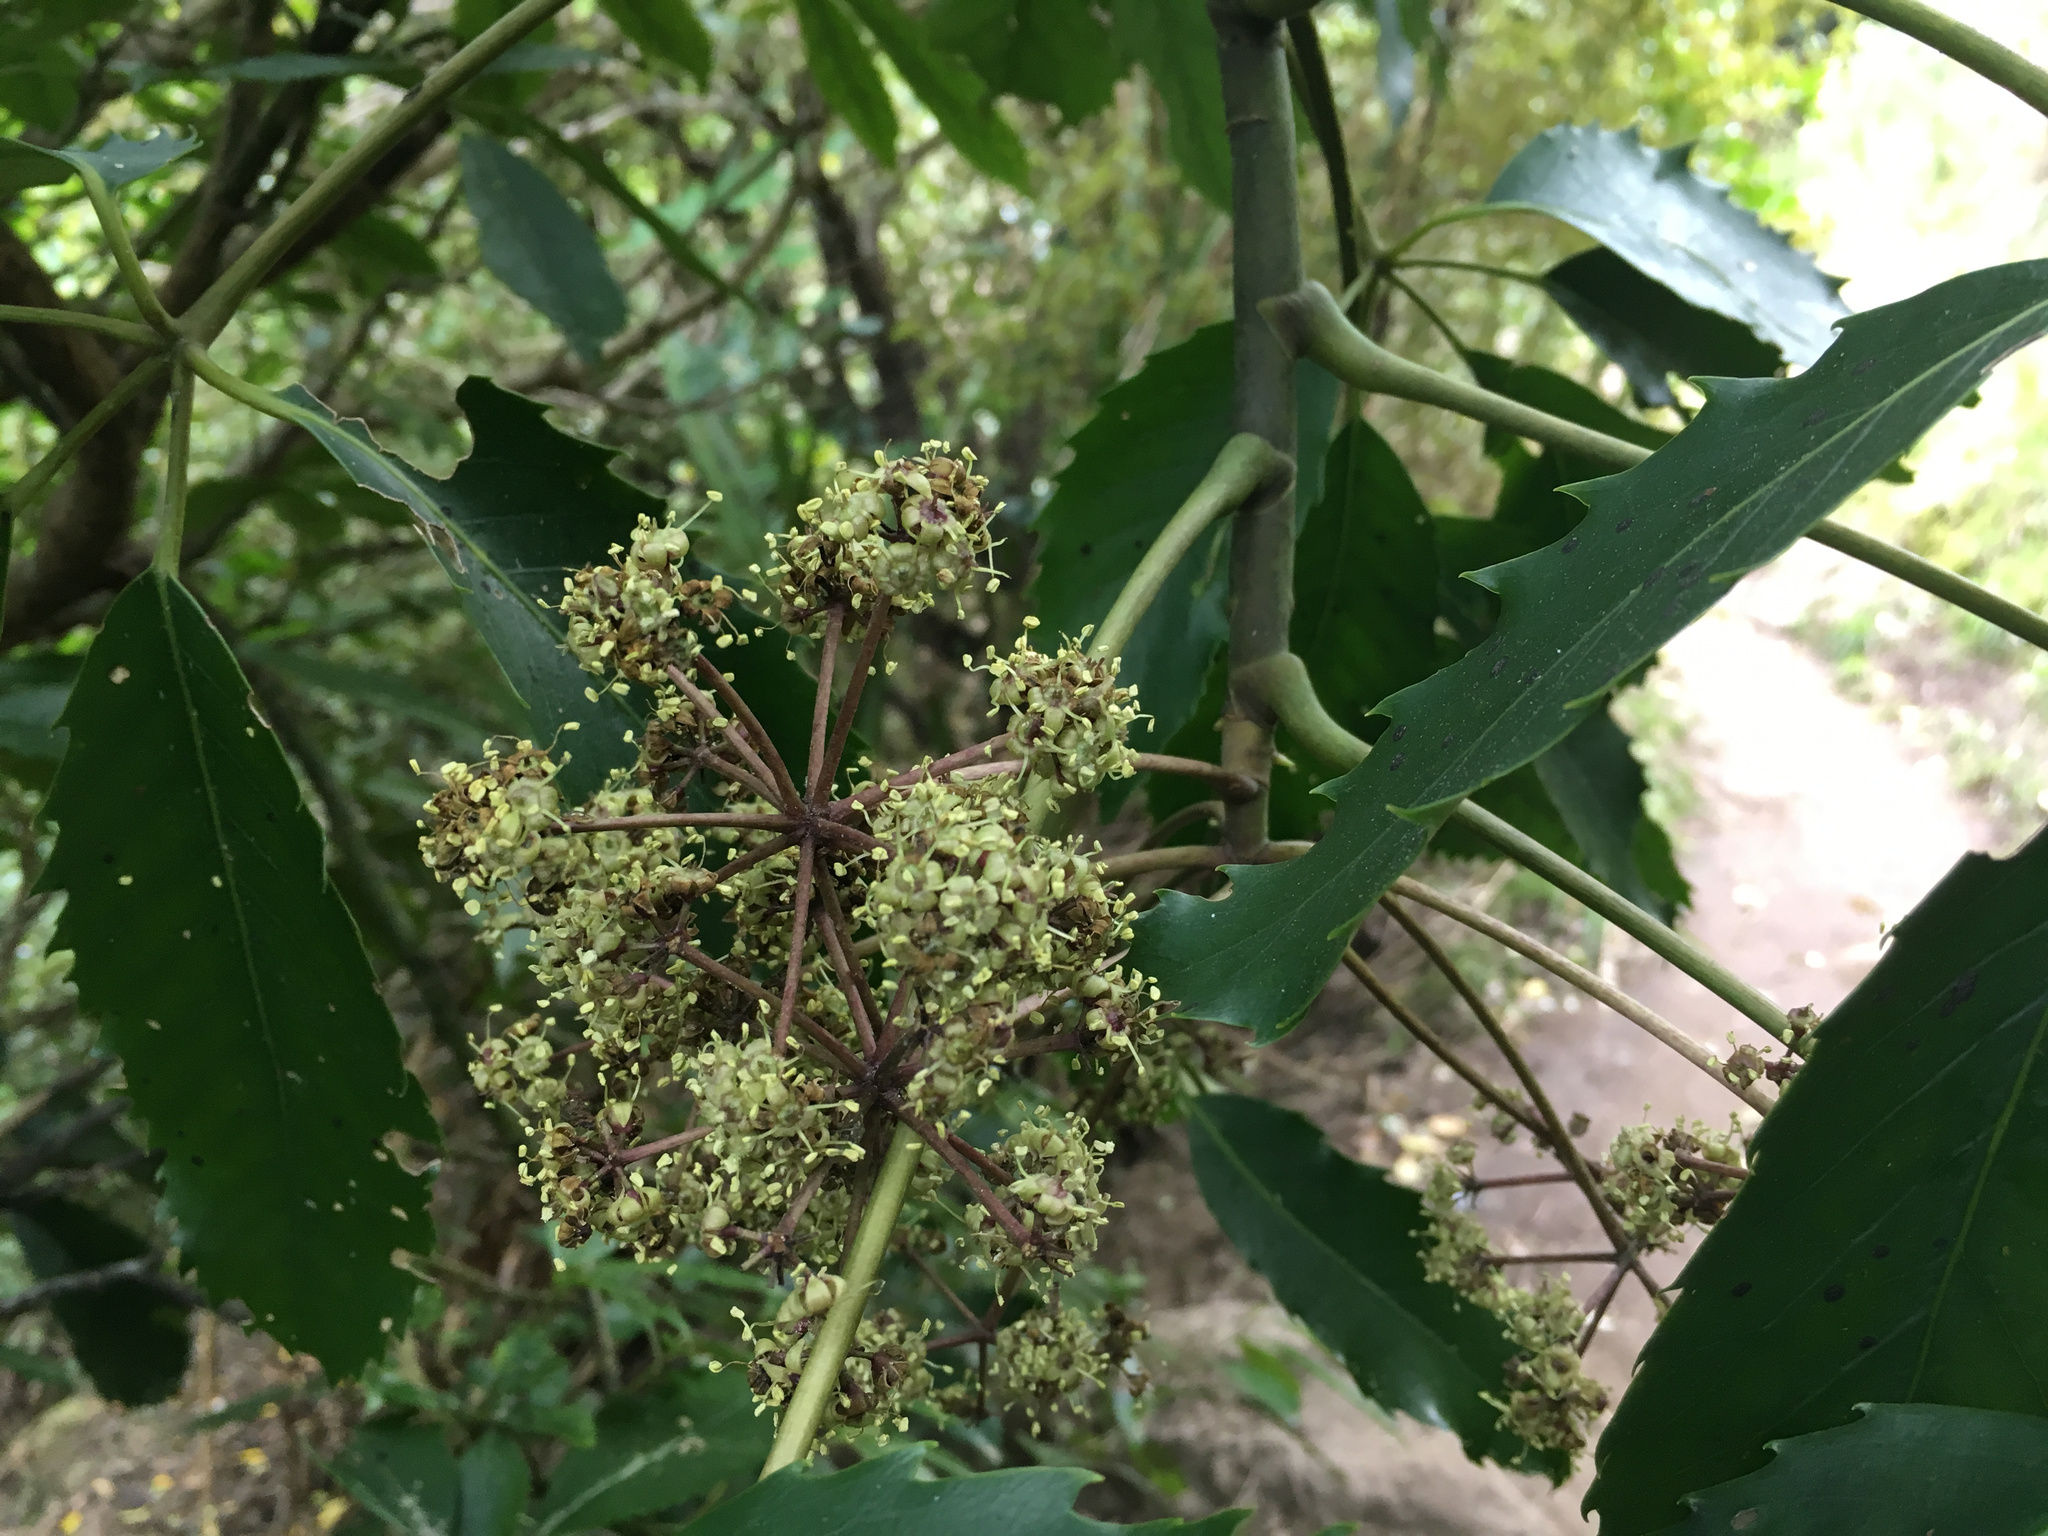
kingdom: Plantae
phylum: Tracheophyta
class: Magnoliopsida
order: Apiales
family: Araliaceae
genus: Neopanax
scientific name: Neopanax arboreus
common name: Five-fingers
